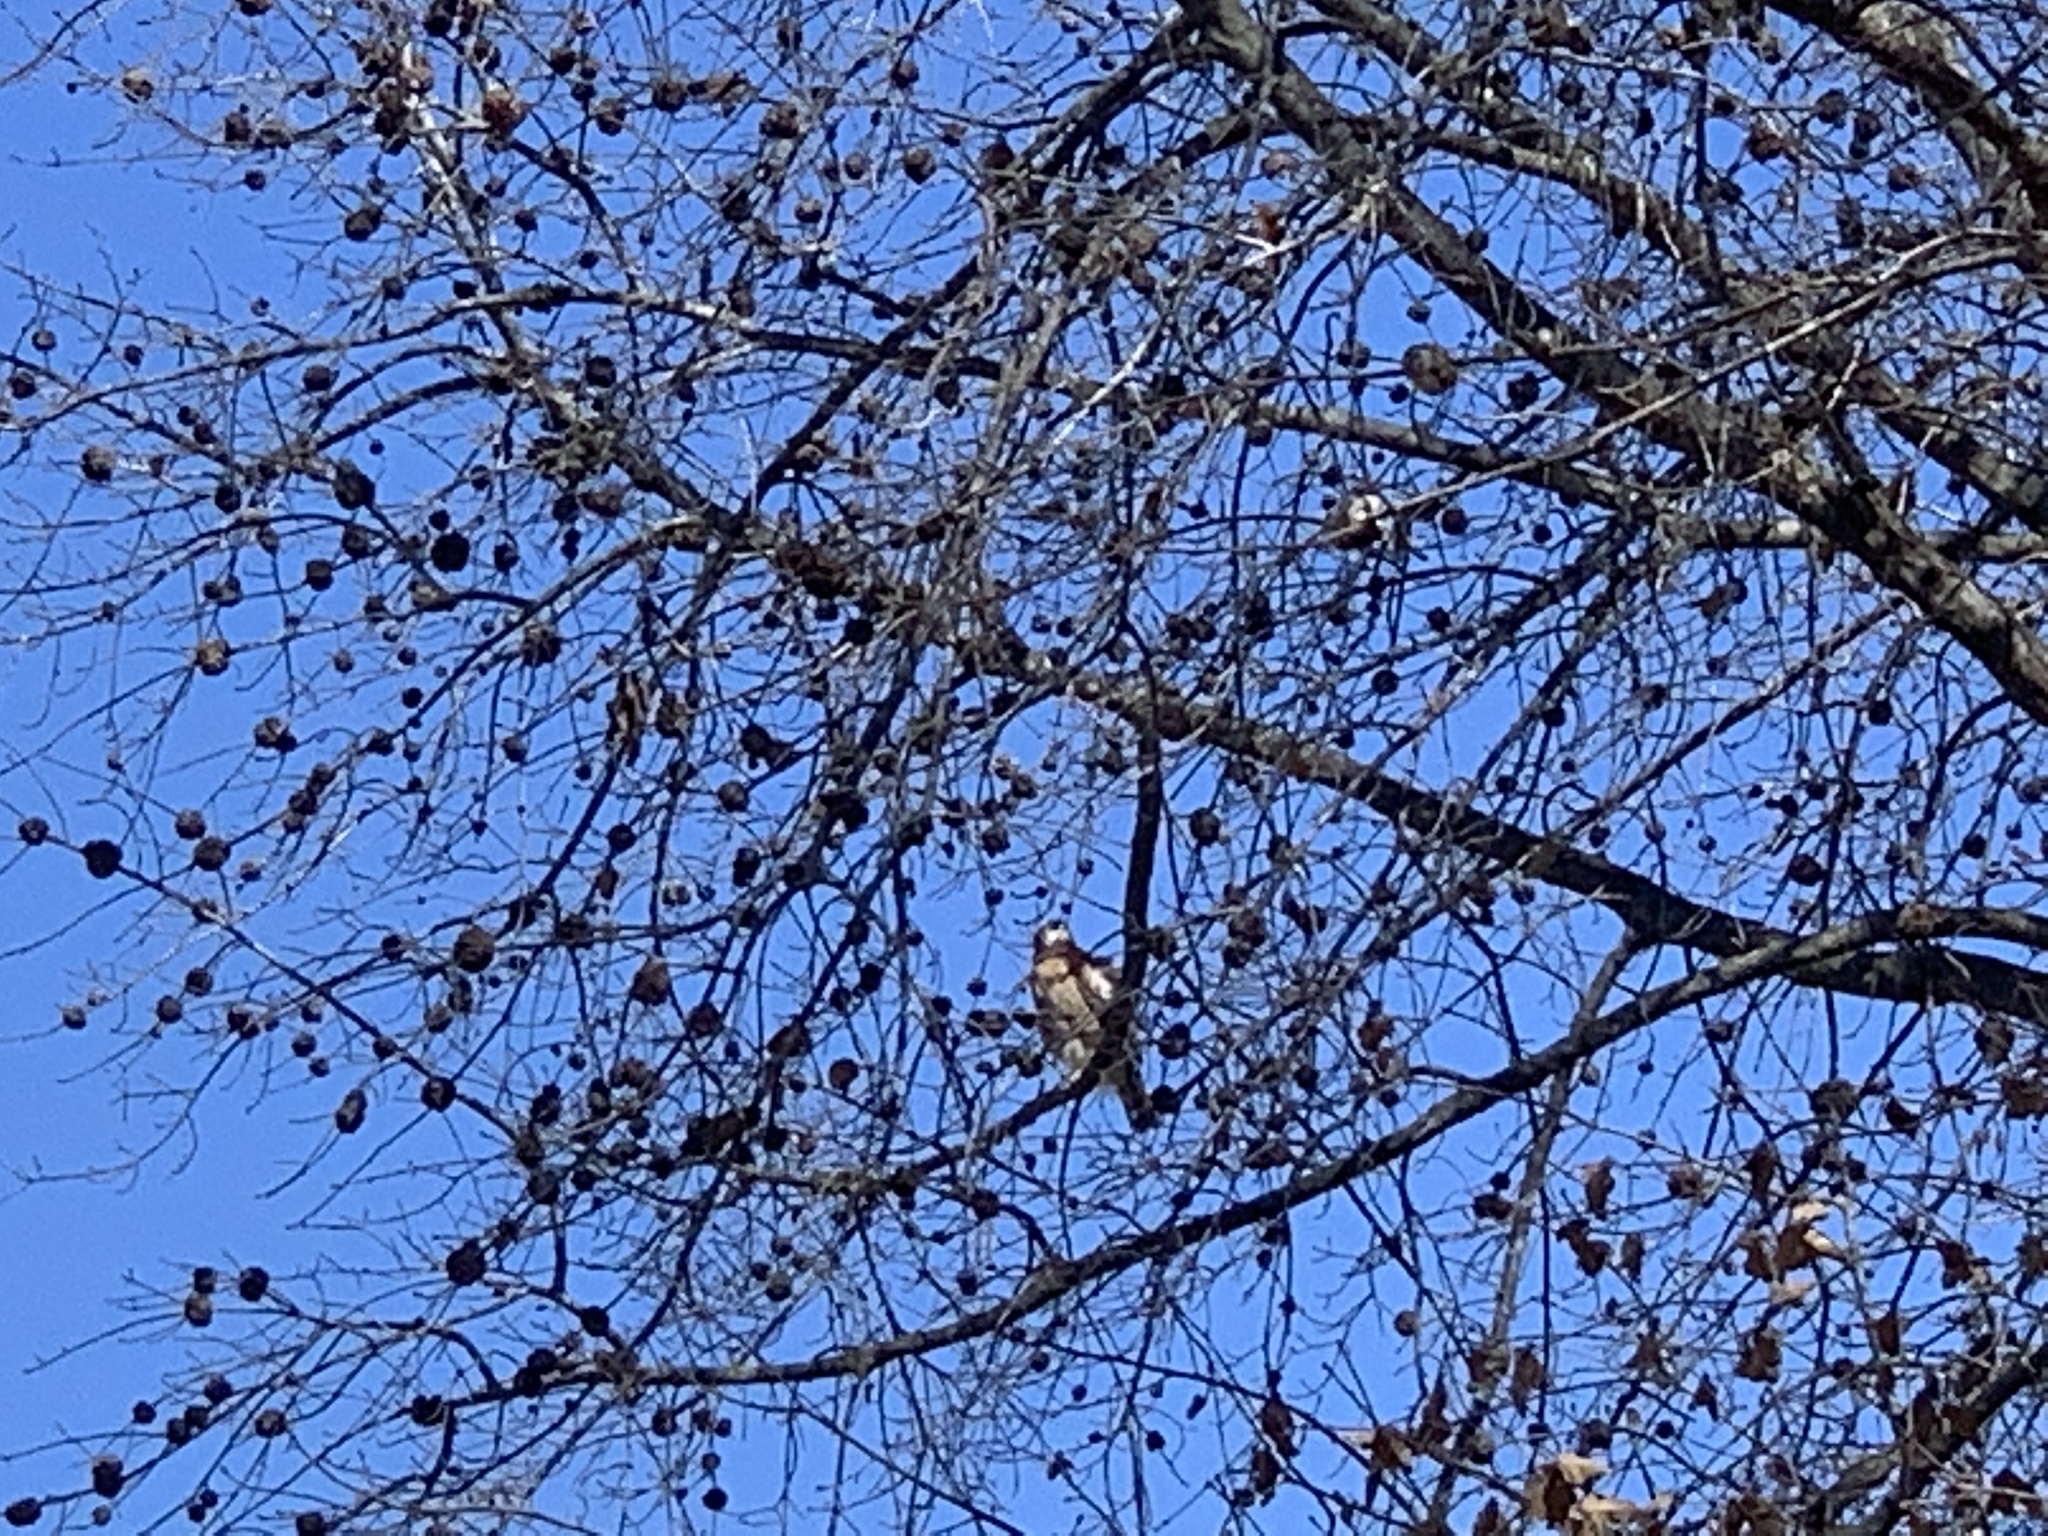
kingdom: Animalia
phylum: Chordata
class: Aves
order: Accipitriformes
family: Accipitridae
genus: Buteo
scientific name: Buteo lineatus
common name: Red-shouldered hawk
